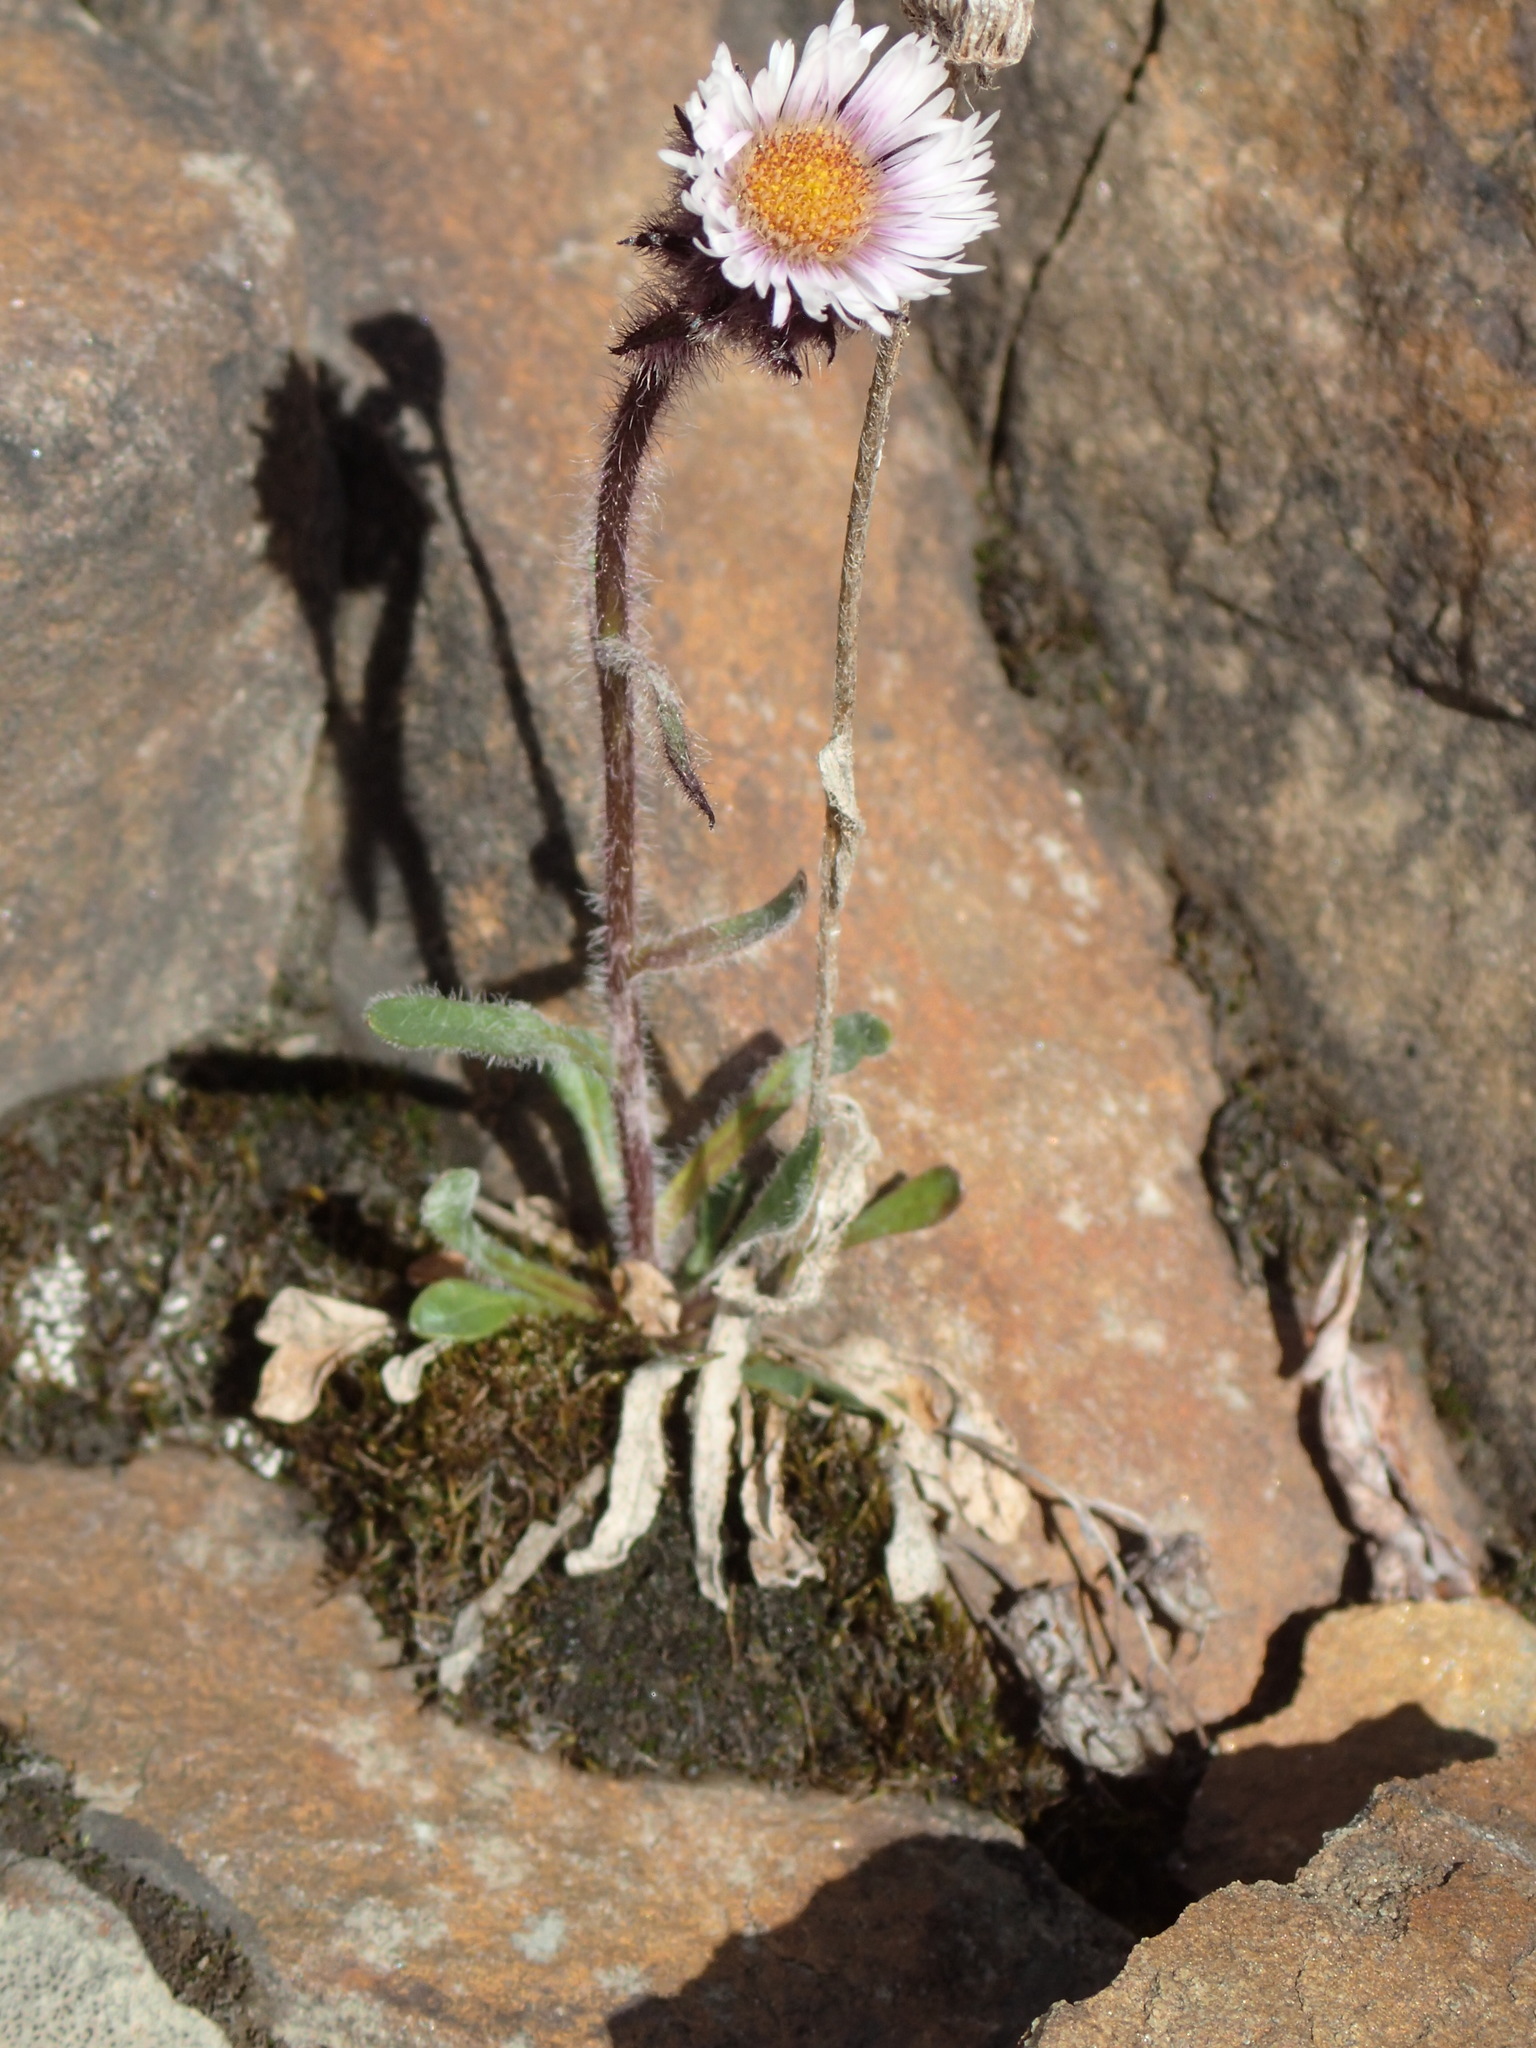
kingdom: Plantae
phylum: Tracheophyta
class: Magnoliopsida
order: Asterales
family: Asteraceae
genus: Erigeron
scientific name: Erigeron humilis
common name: Arctic-alpine fleabane
